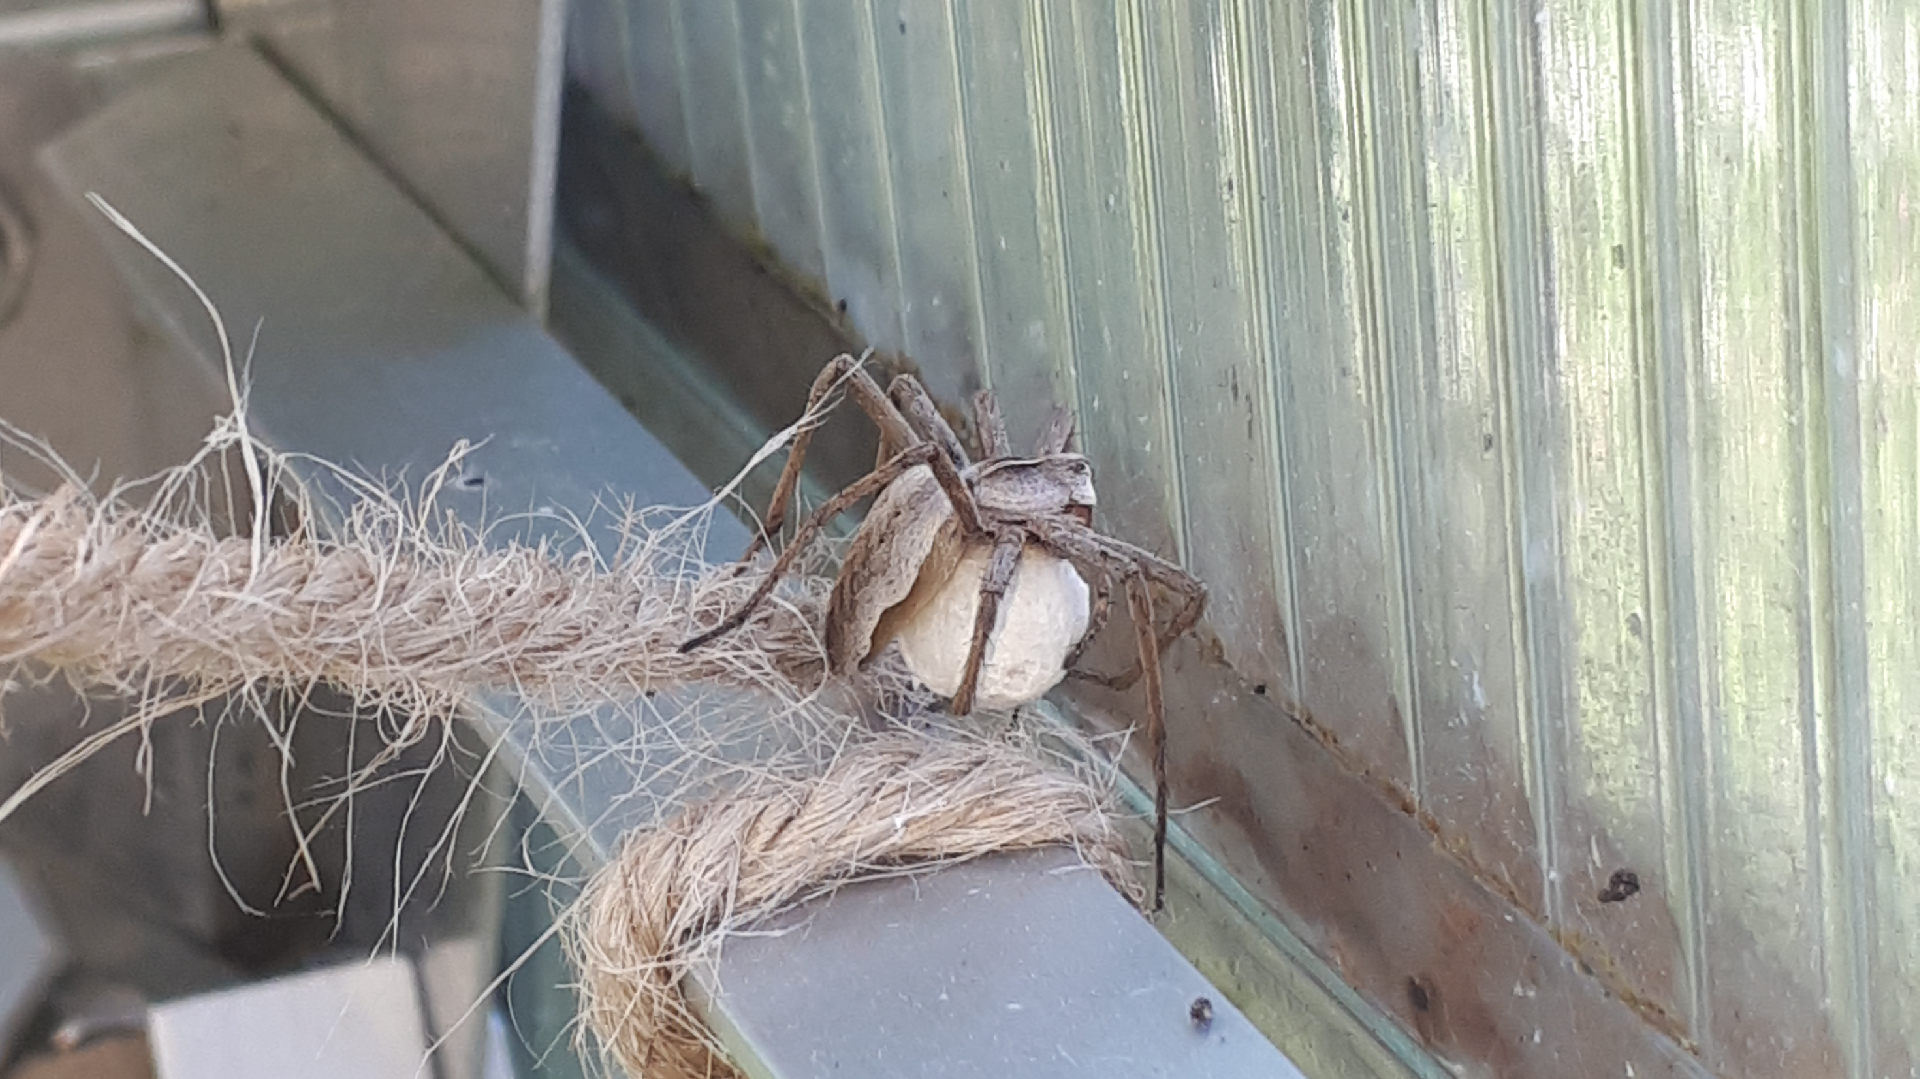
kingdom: Animalia
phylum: Arthropoda
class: Arachnida
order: Araneae
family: Pisauridae
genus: Pisaura
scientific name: Pisaura mirabilis
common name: Tent spider
